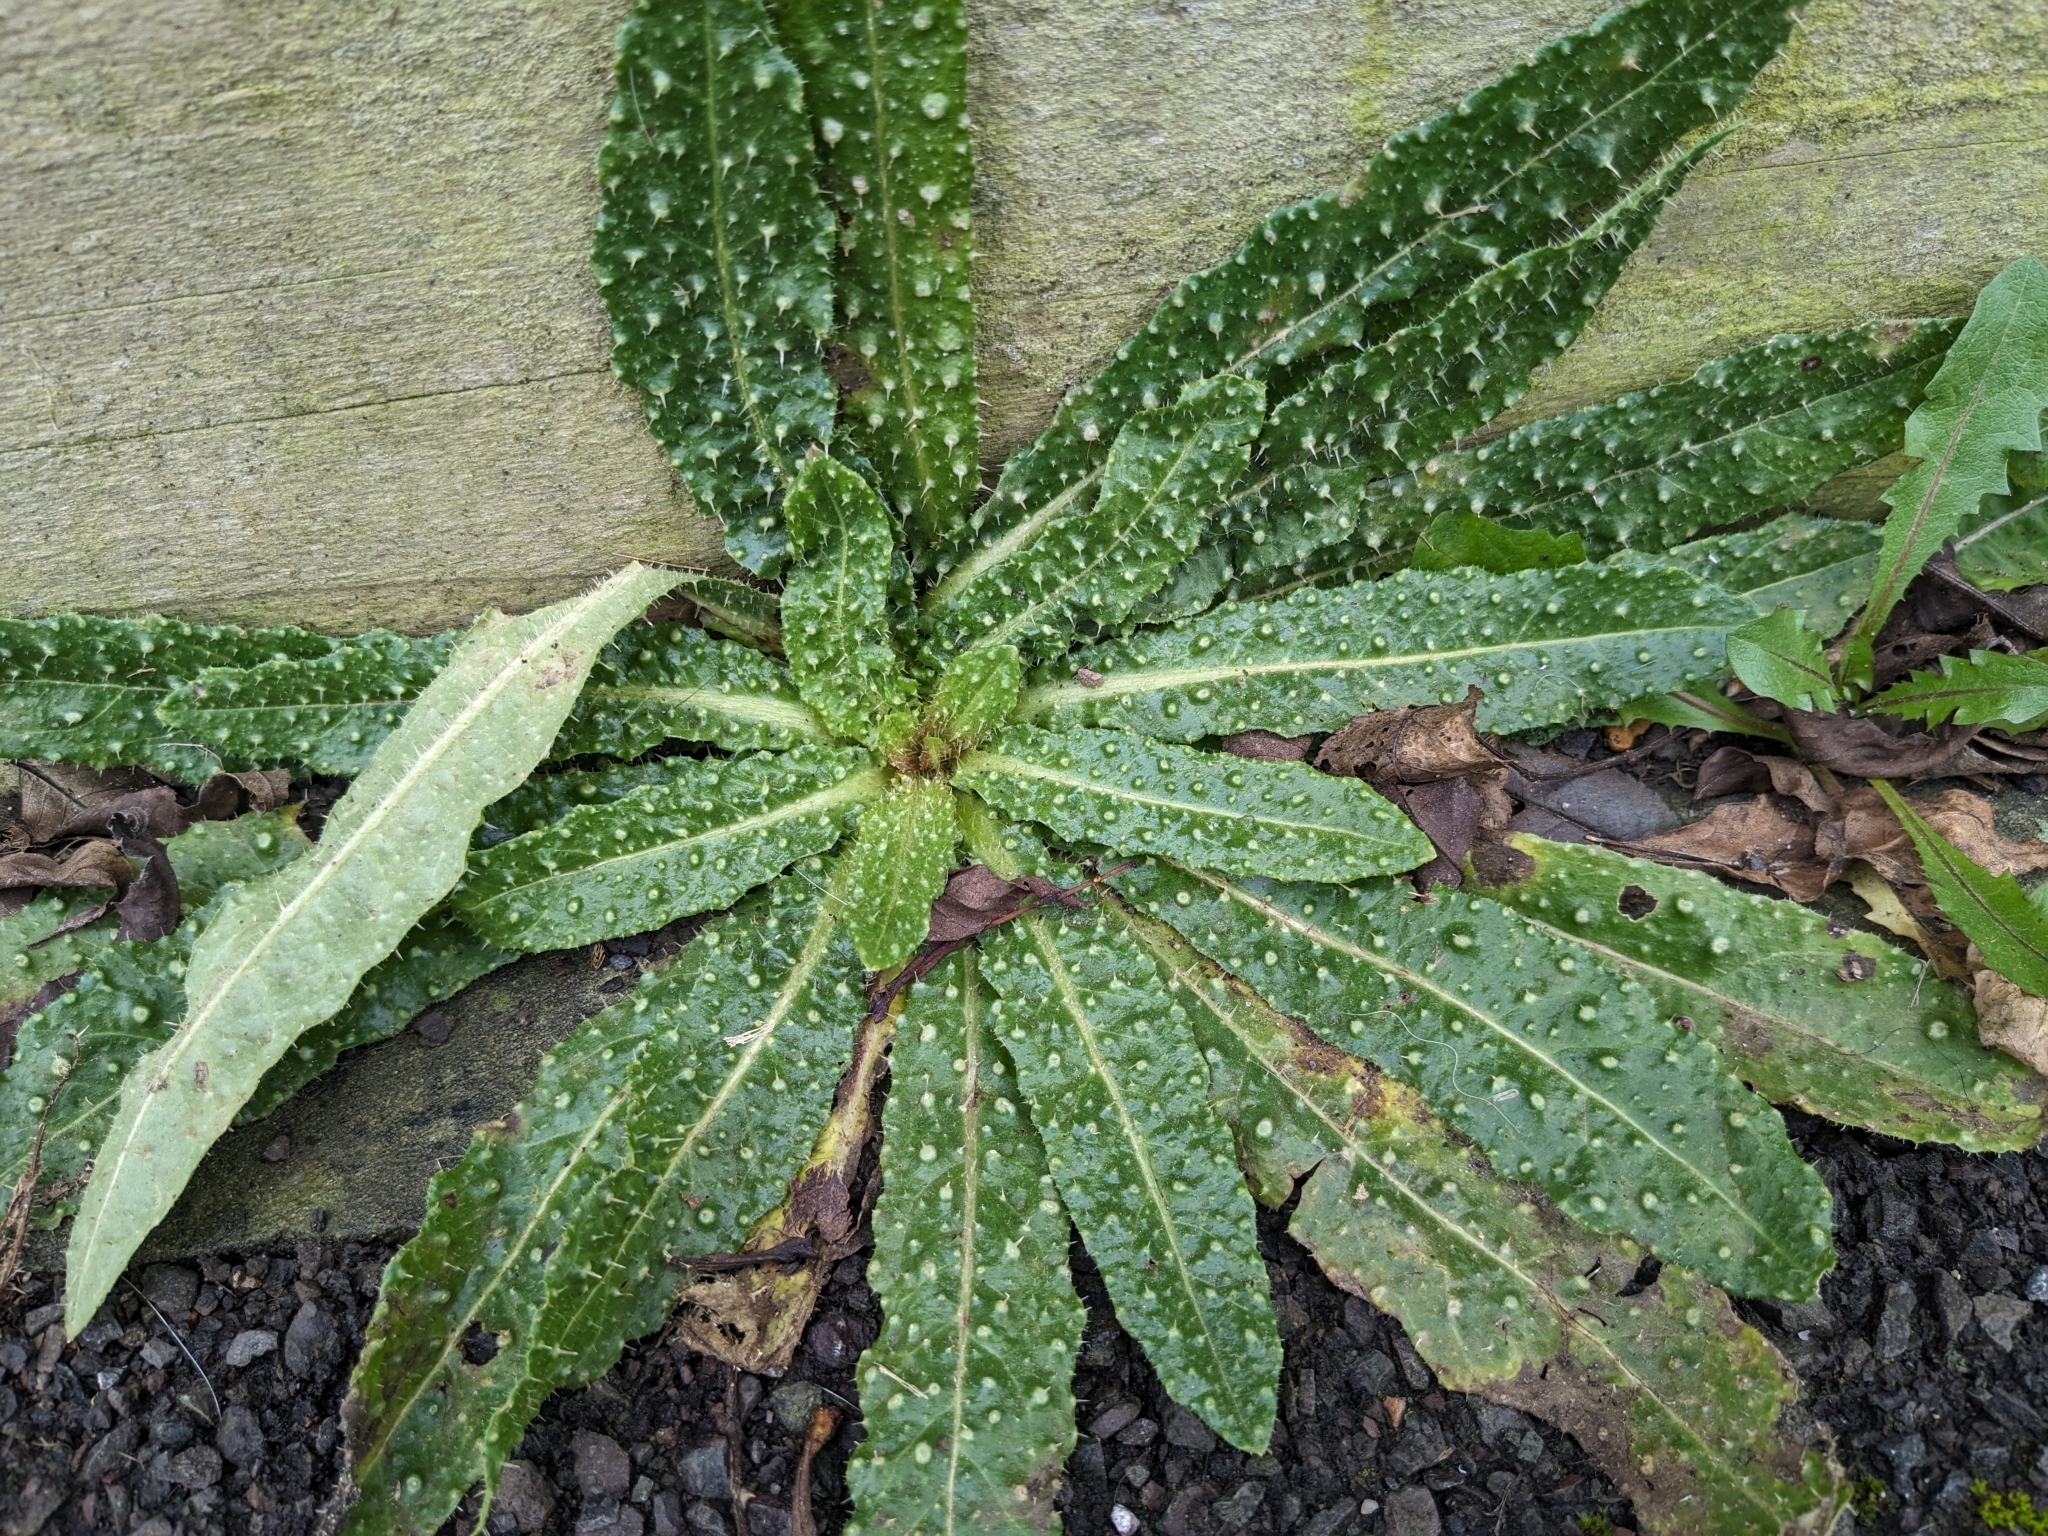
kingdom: Plantae
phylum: Tracheophyta
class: Magnoliopsida
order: Asterales
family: Asteraceae
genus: Helminthotheca
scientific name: Helminthotheca echioides
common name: Ox-tongue
